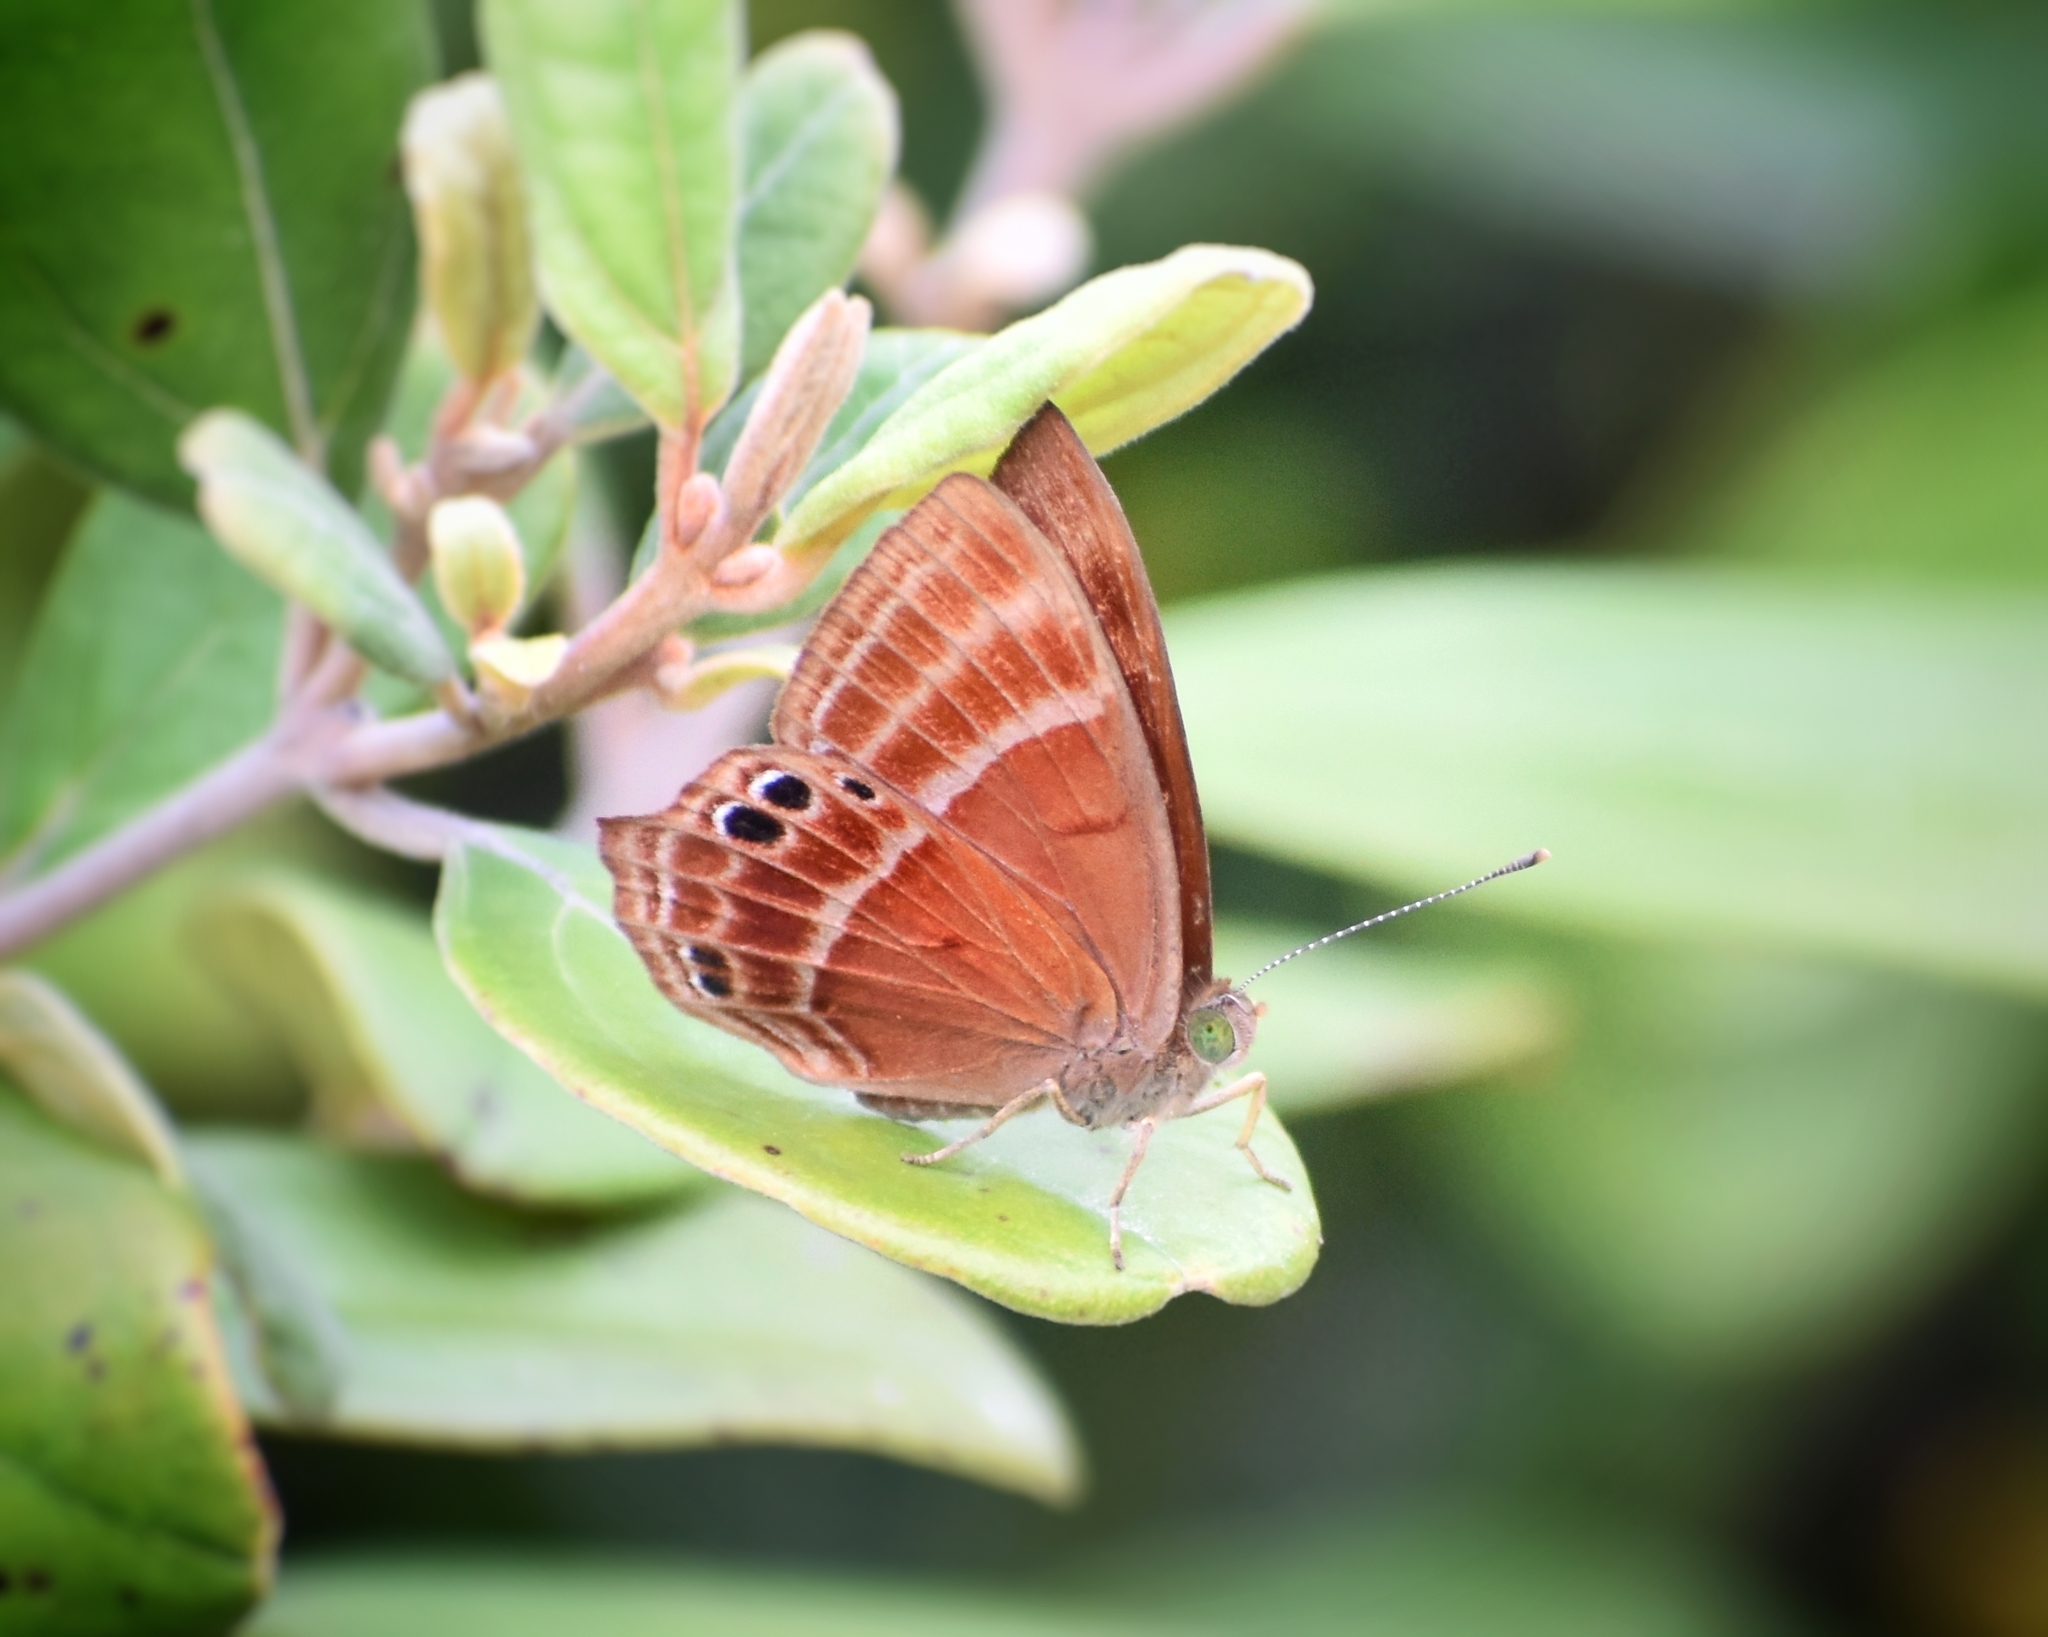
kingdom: Animalia
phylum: Arthropoda
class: Insecta
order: Lepidoptera
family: Lycaenidae
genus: Abisara
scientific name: Abisara echeria
